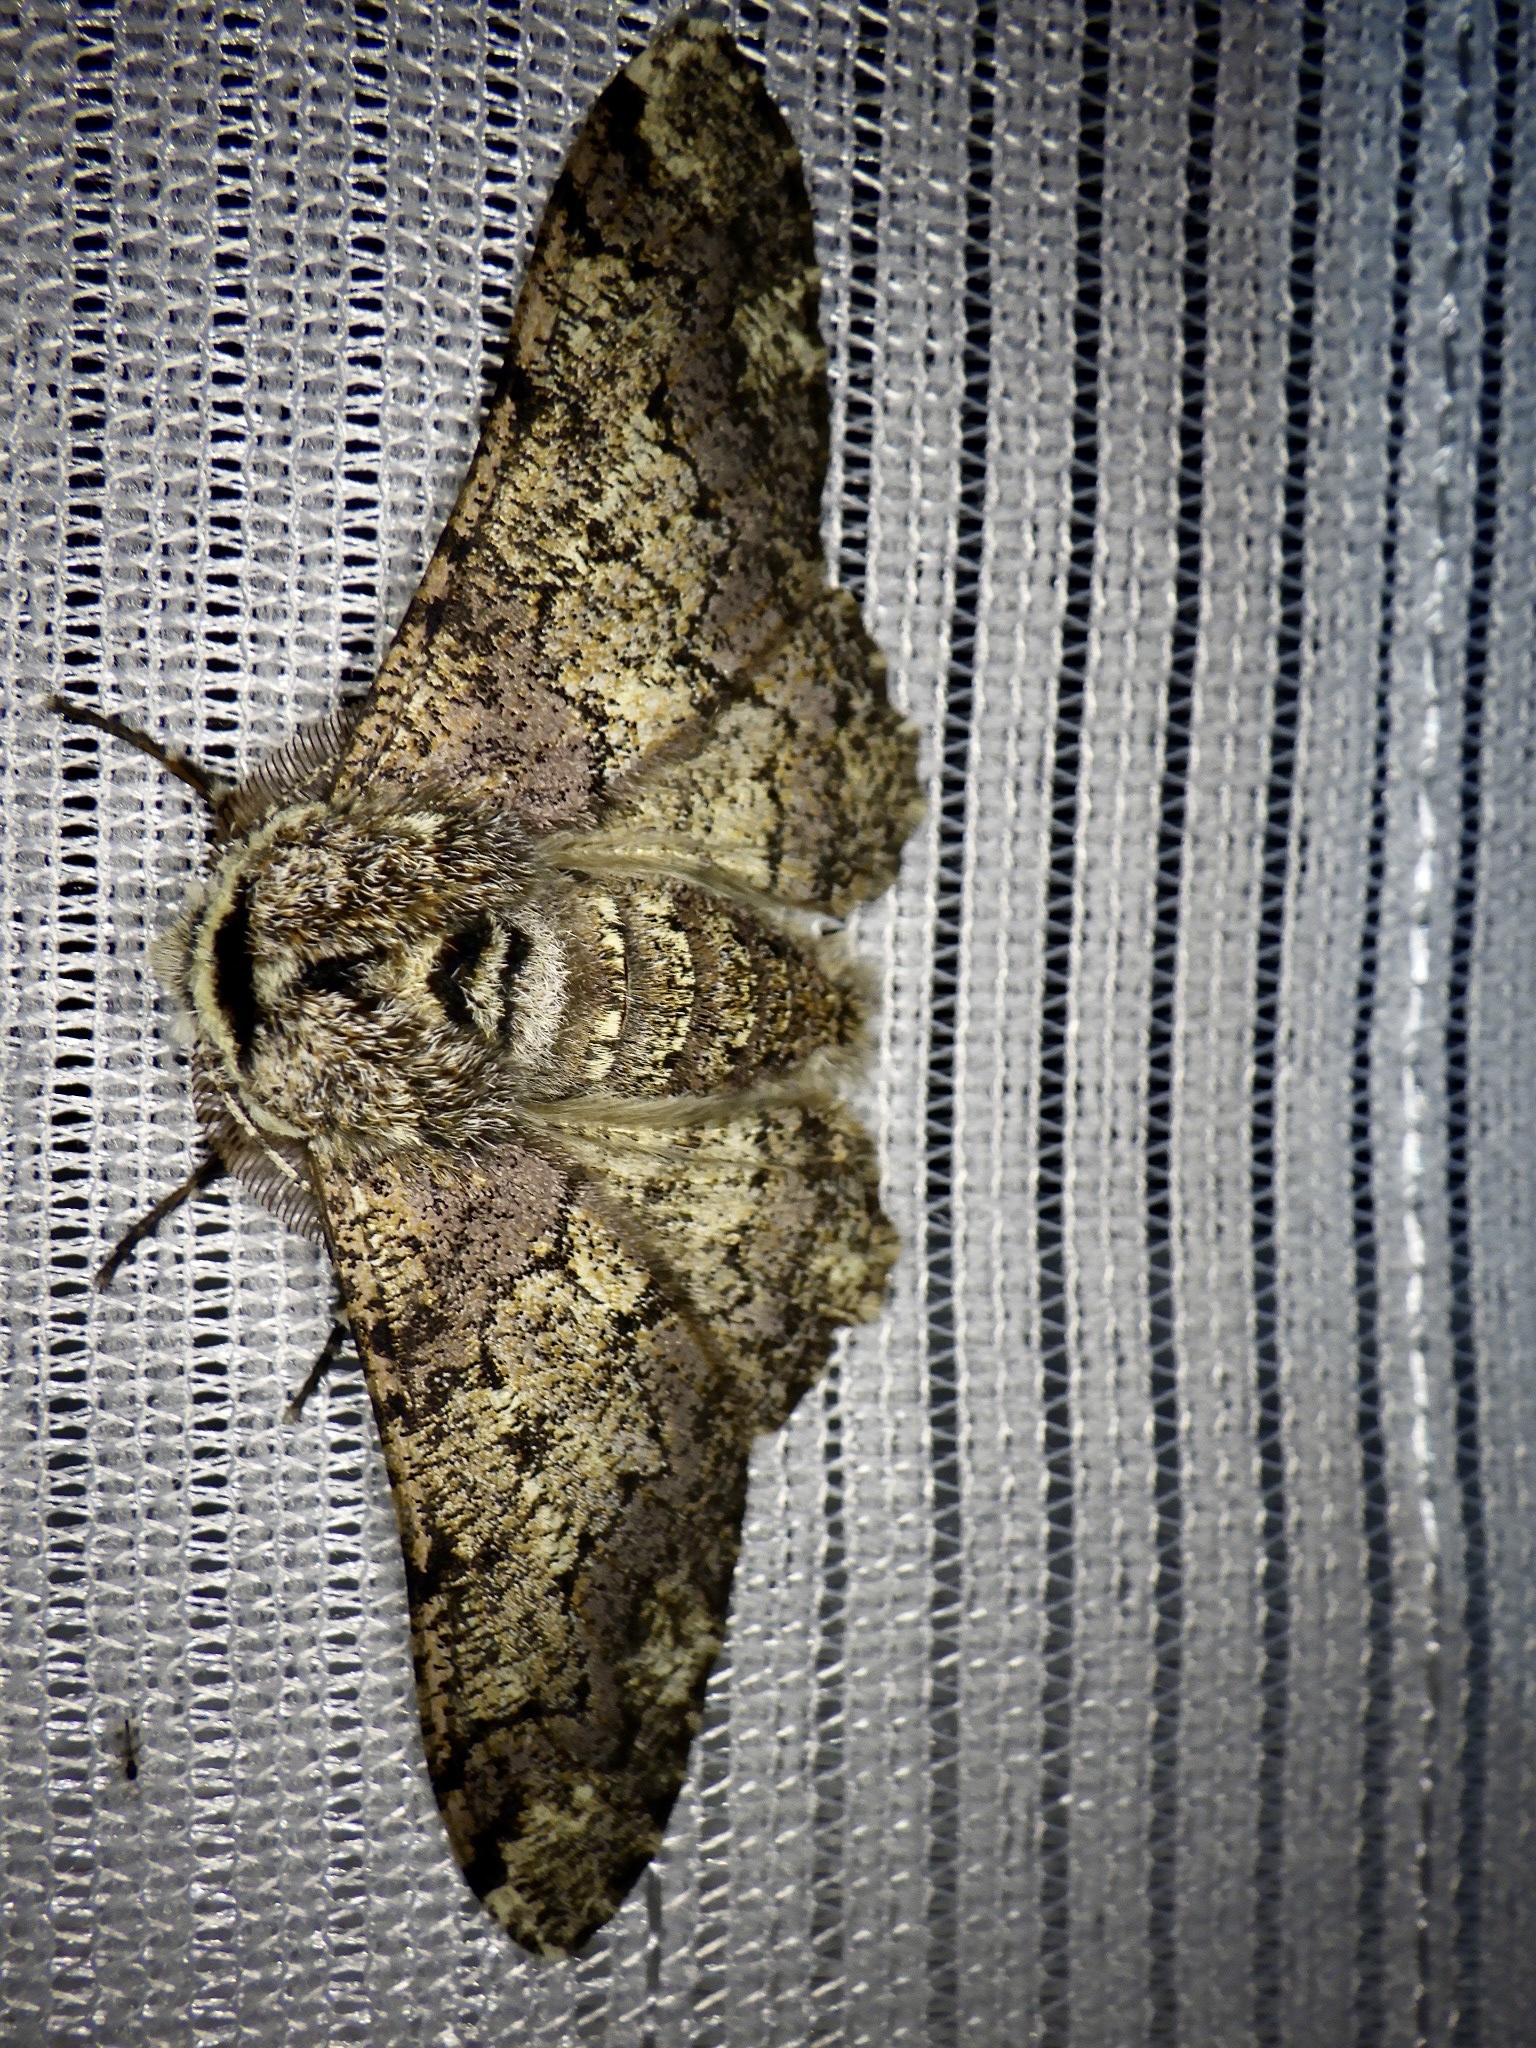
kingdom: Animalia
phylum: Arthropoda
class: Insecta
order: Lepidoptera
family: Geometridae
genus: Biston
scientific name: Biston robustum
